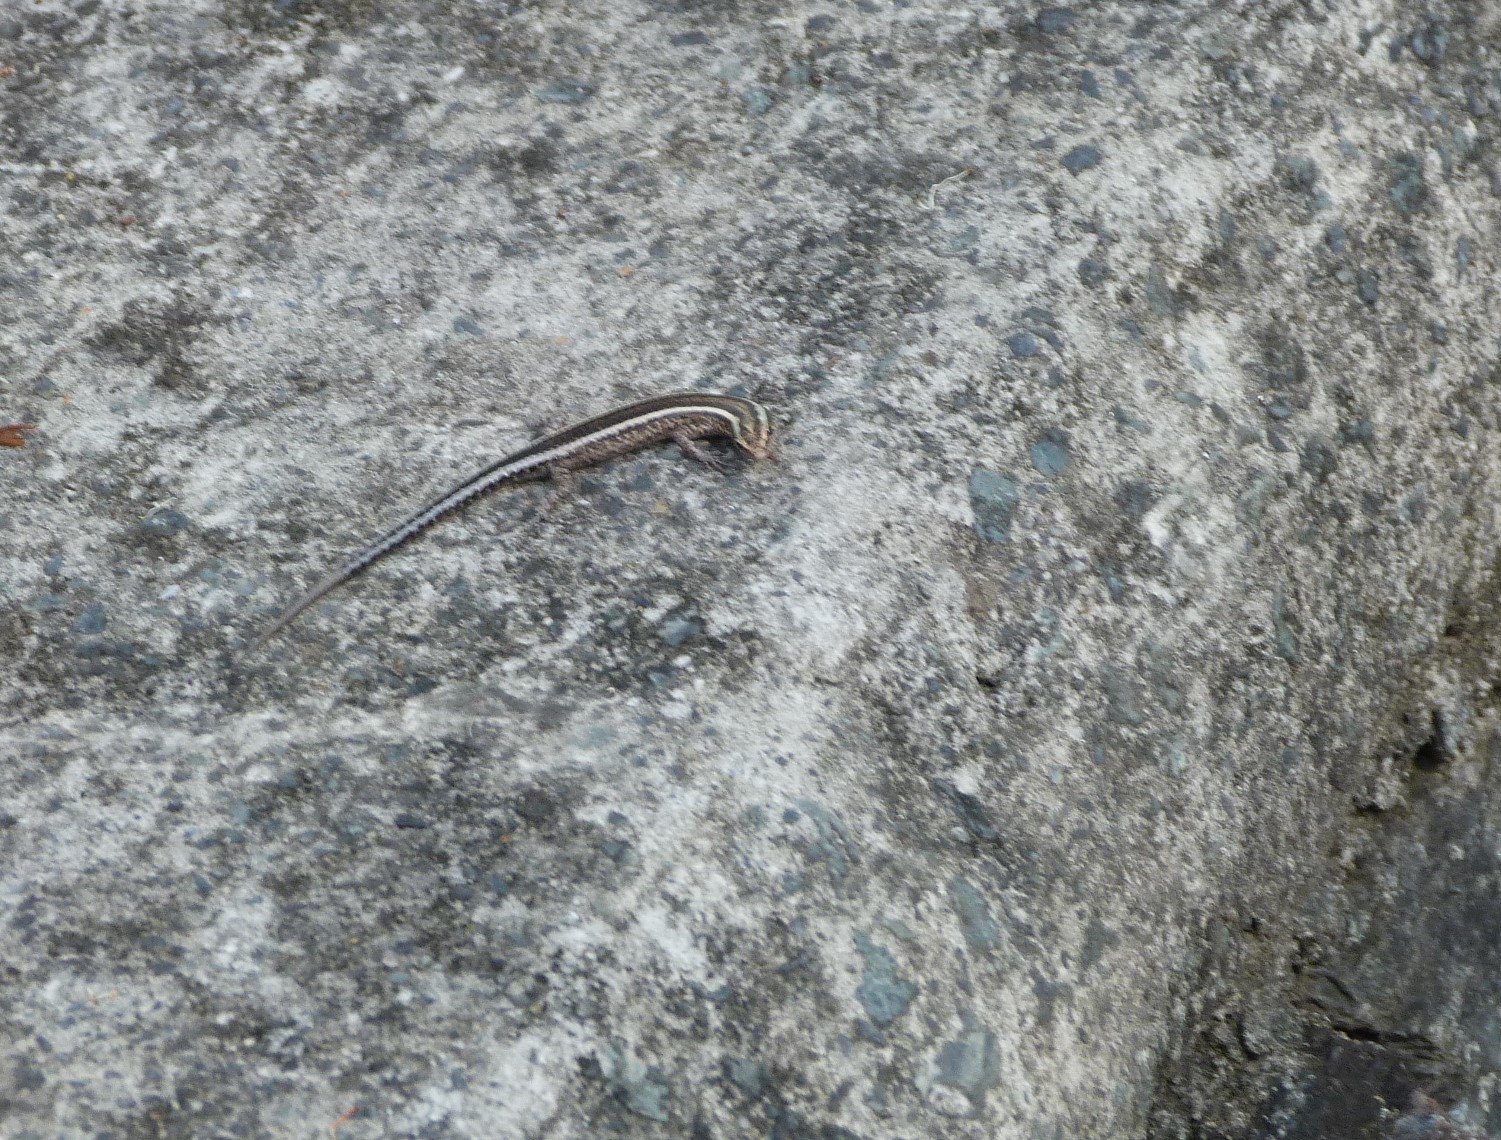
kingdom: Animalia
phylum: Chordata
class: Squamata
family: Scincidae
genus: Cryptoblepharus
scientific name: Cryptoblepharus pulcher
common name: Elegant snake-eyed skink
